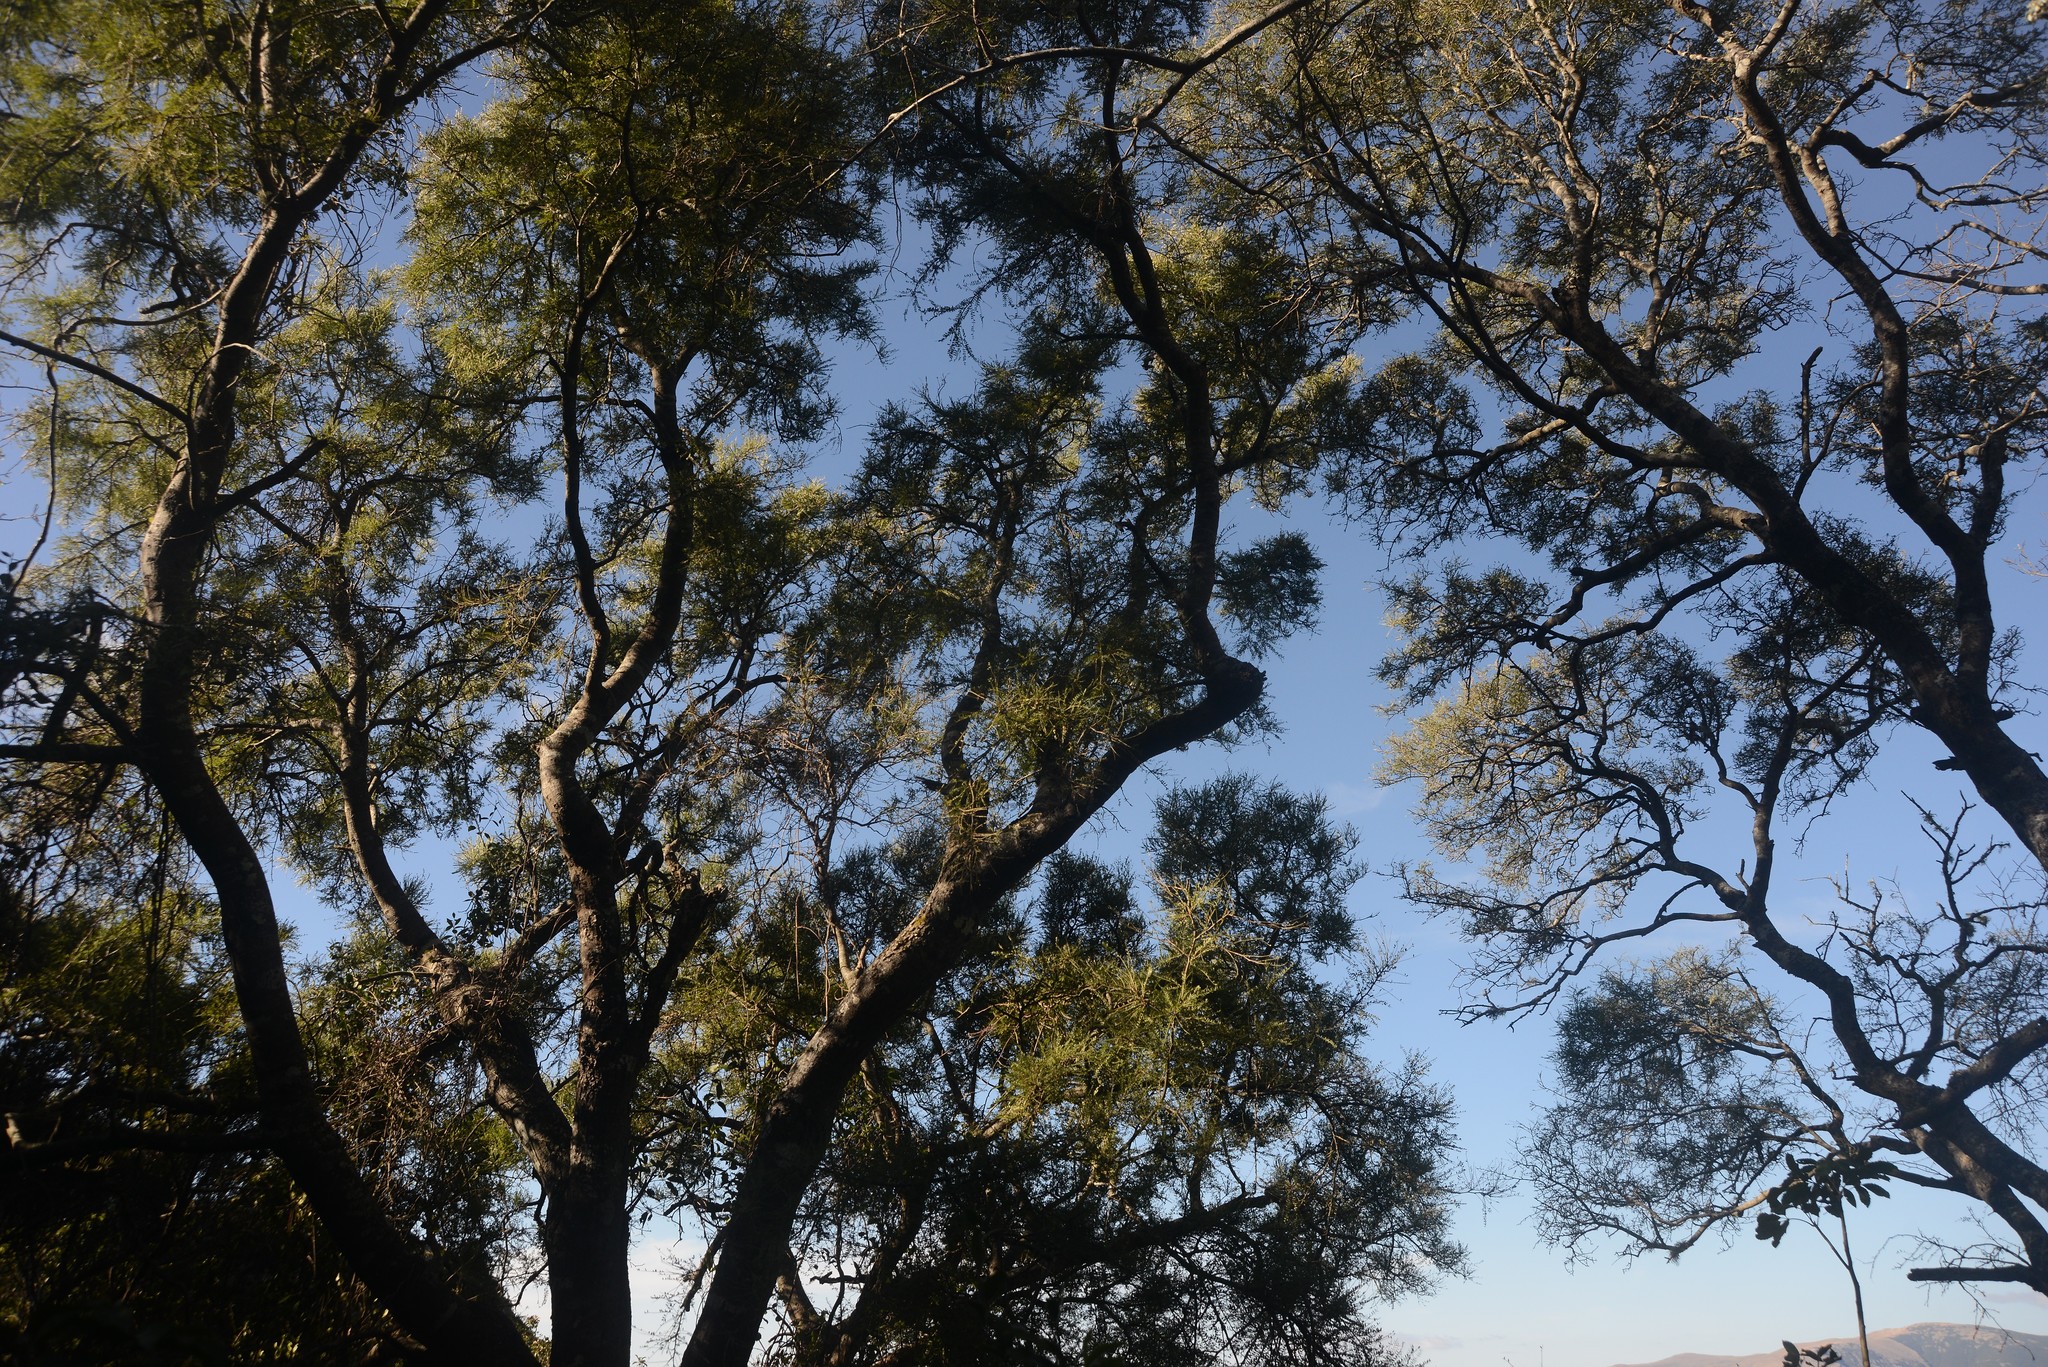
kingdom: Plantae
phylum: Tracheophyta
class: Magnoliopsida
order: Fabales
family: Fabaceae
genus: Sophora
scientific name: Sophora microphylla
